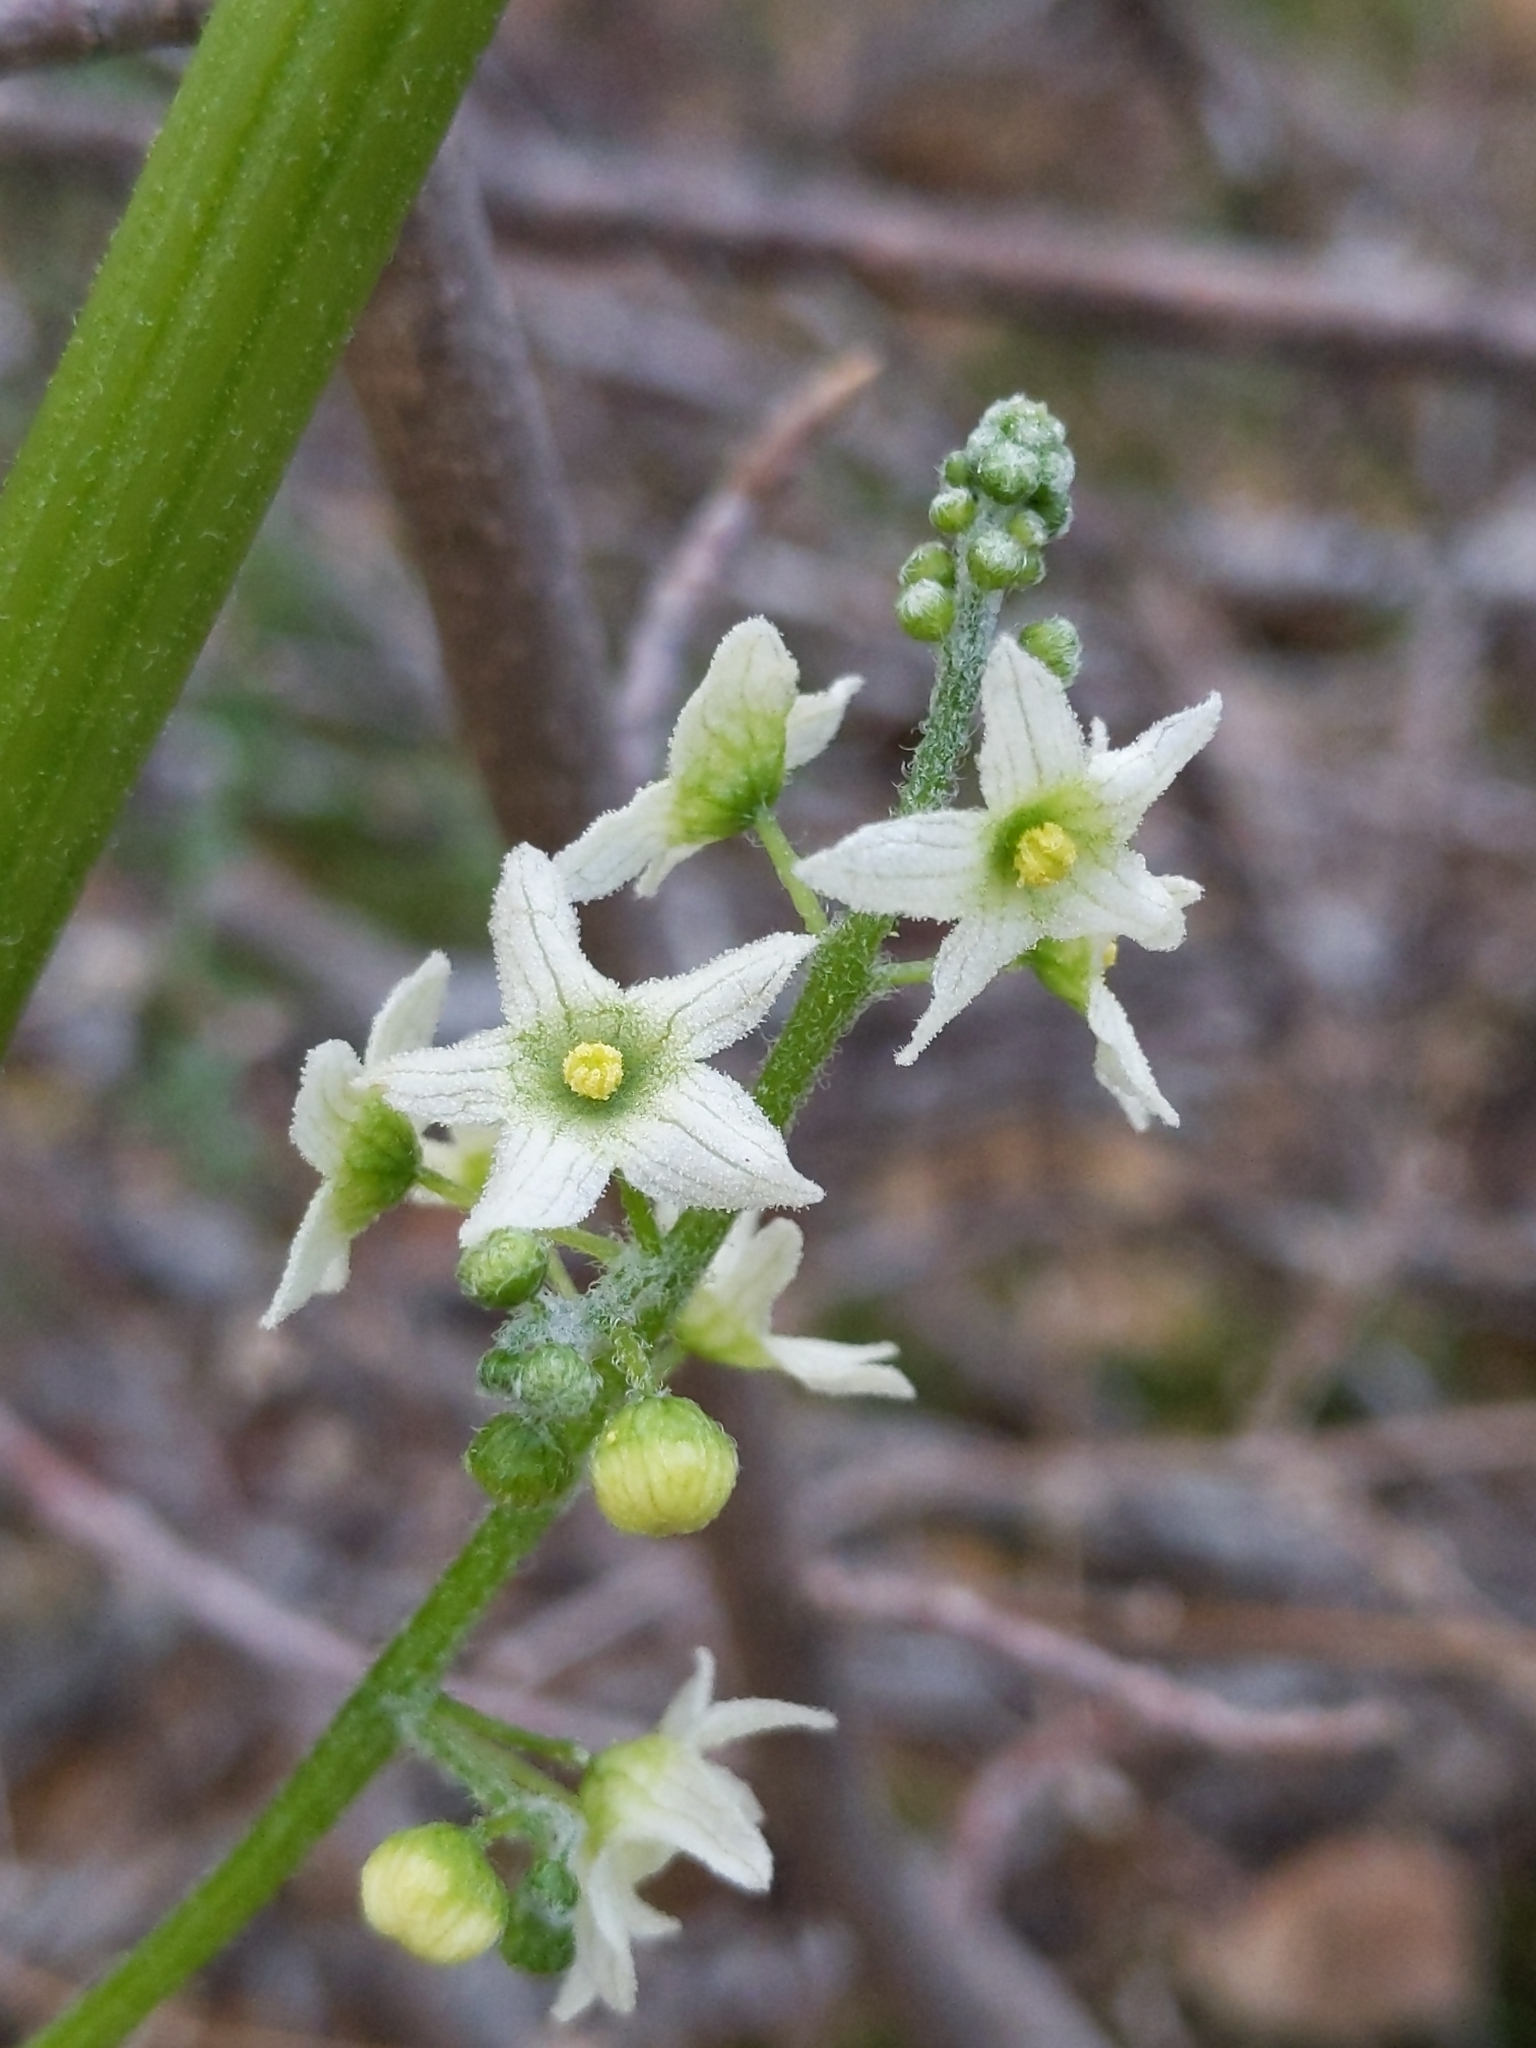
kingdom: Plantae
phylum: Tracheophyta
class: Magnoliopsida
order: Cucurbitales
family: Cucurbitaceae
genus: Marah
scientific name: Marah fabacea
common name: California manroot
